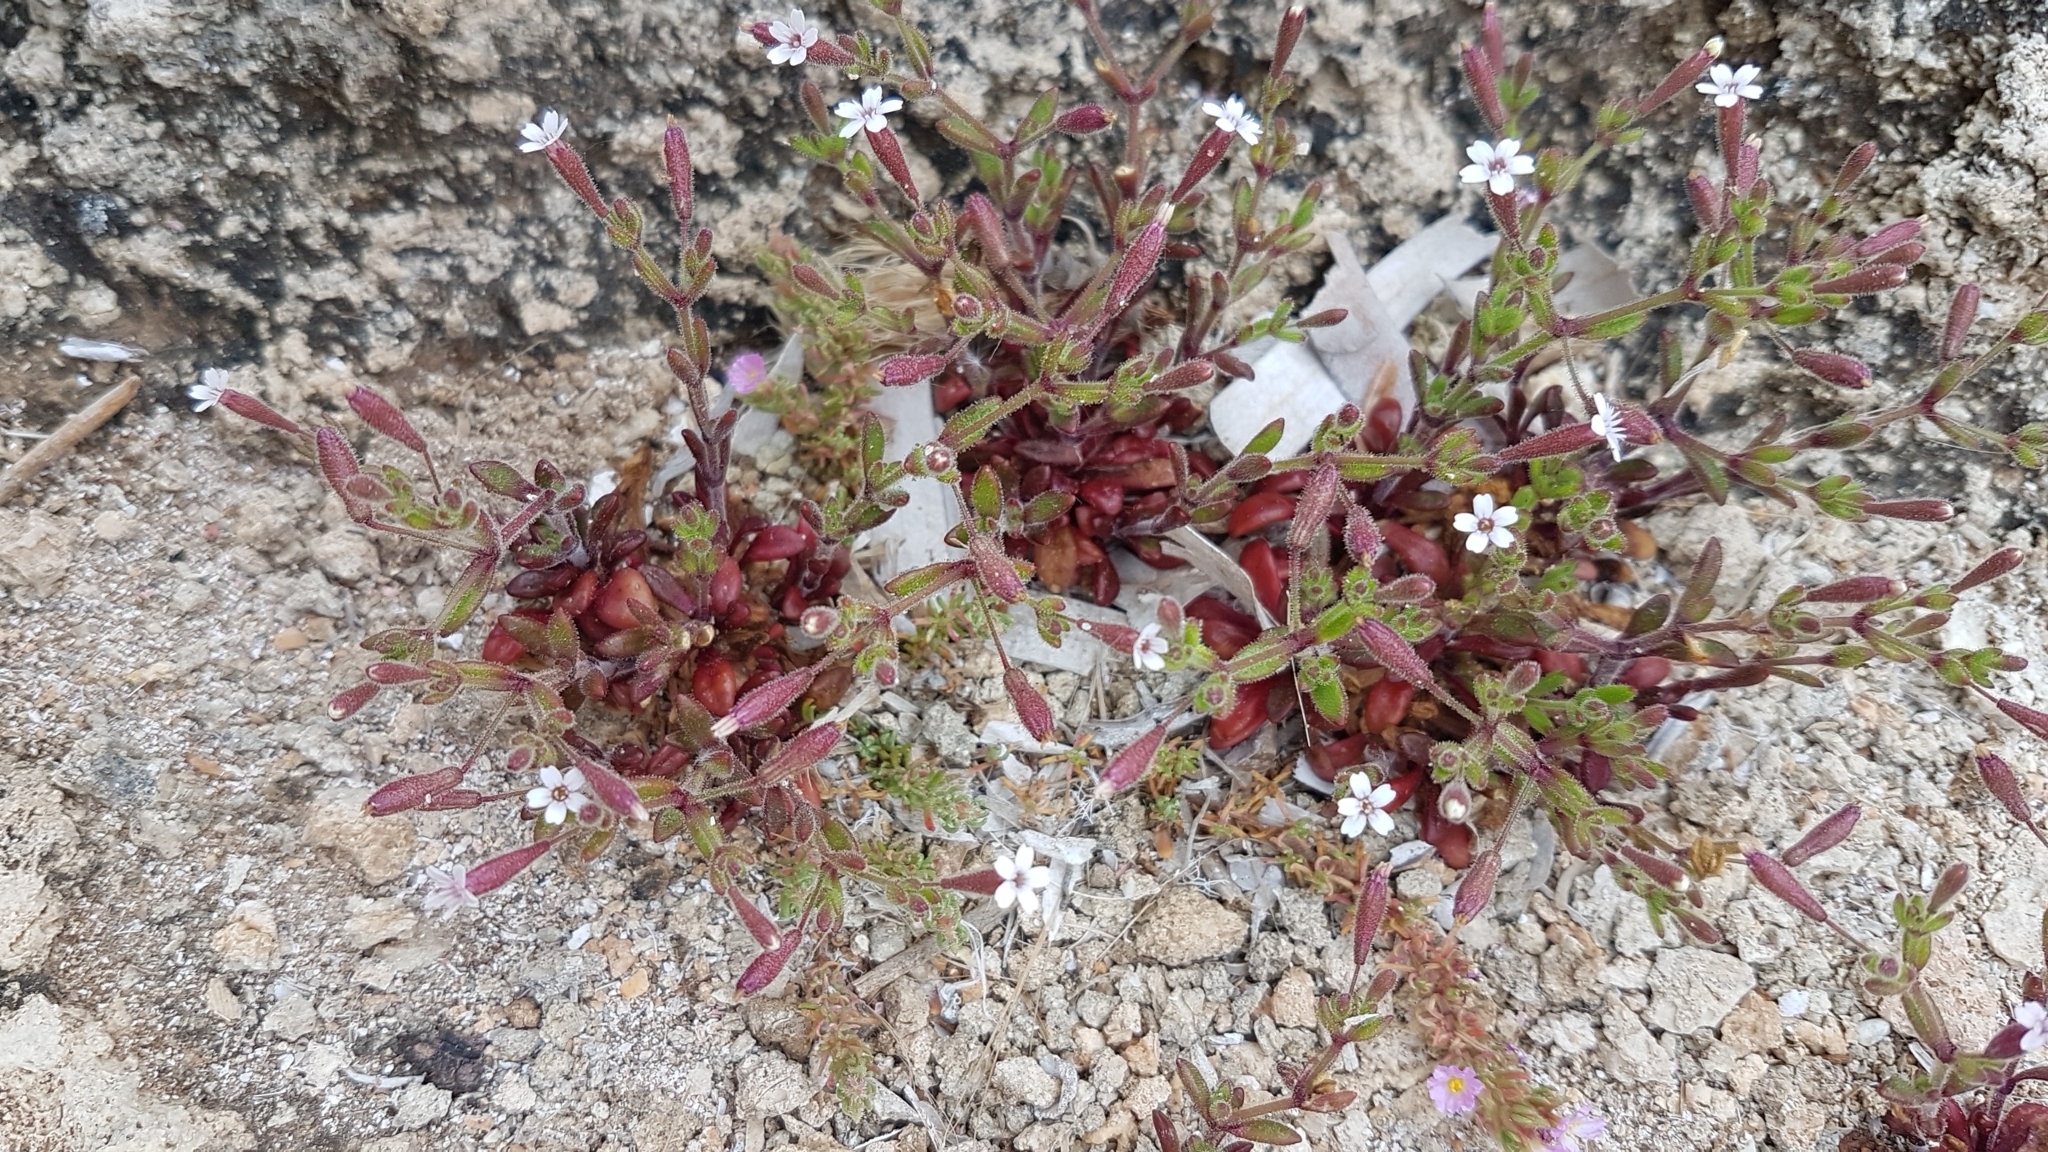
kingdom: Plantae
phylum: Tracheophyta
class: Magnoliopsida
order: Caryophyllales
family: Caryophyllaceae
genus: Silene
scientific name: Silene sedoides
